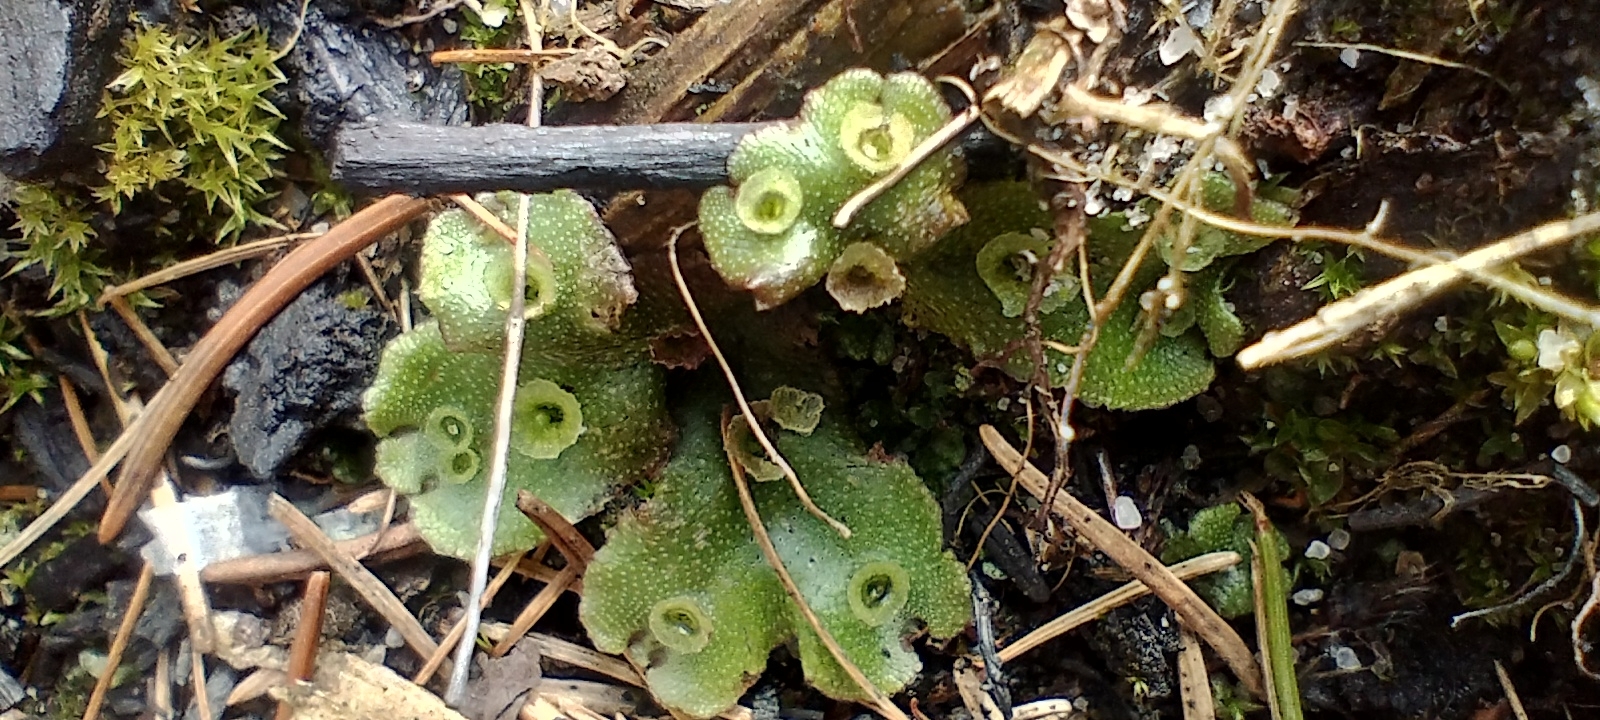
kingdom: Plantae
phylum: Marchantiophyta
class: Marchantiopsida
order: Marchantiales
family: Marchantiaceae
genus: Marchantia
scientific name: Marchantia polymorpha
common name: Common liverwort
